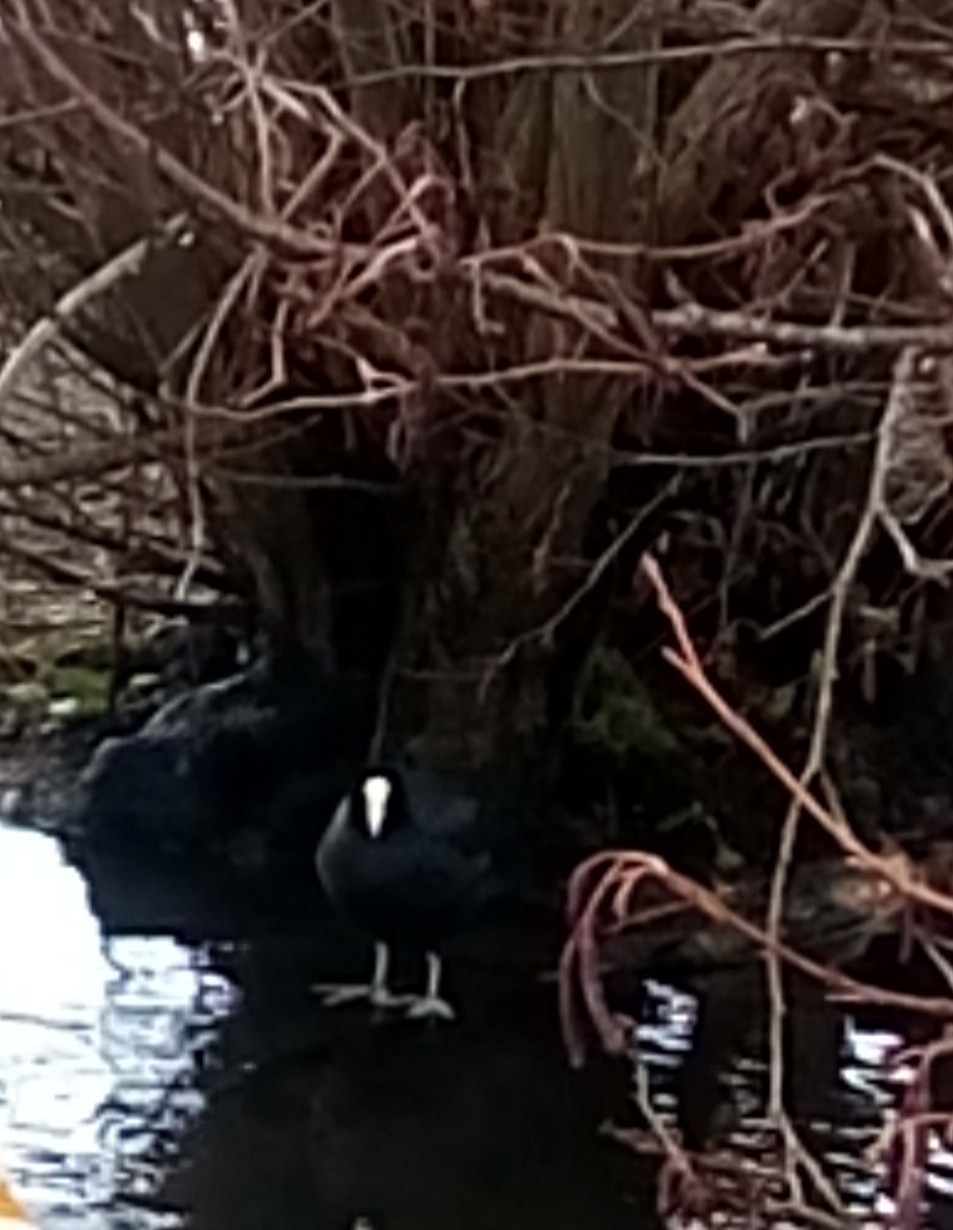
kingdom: Animalia
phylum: Chordata
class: Aves
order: Gruiformes
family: Rallidae
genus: Fulica
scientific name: Fulica atra
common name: Eurasian coot
